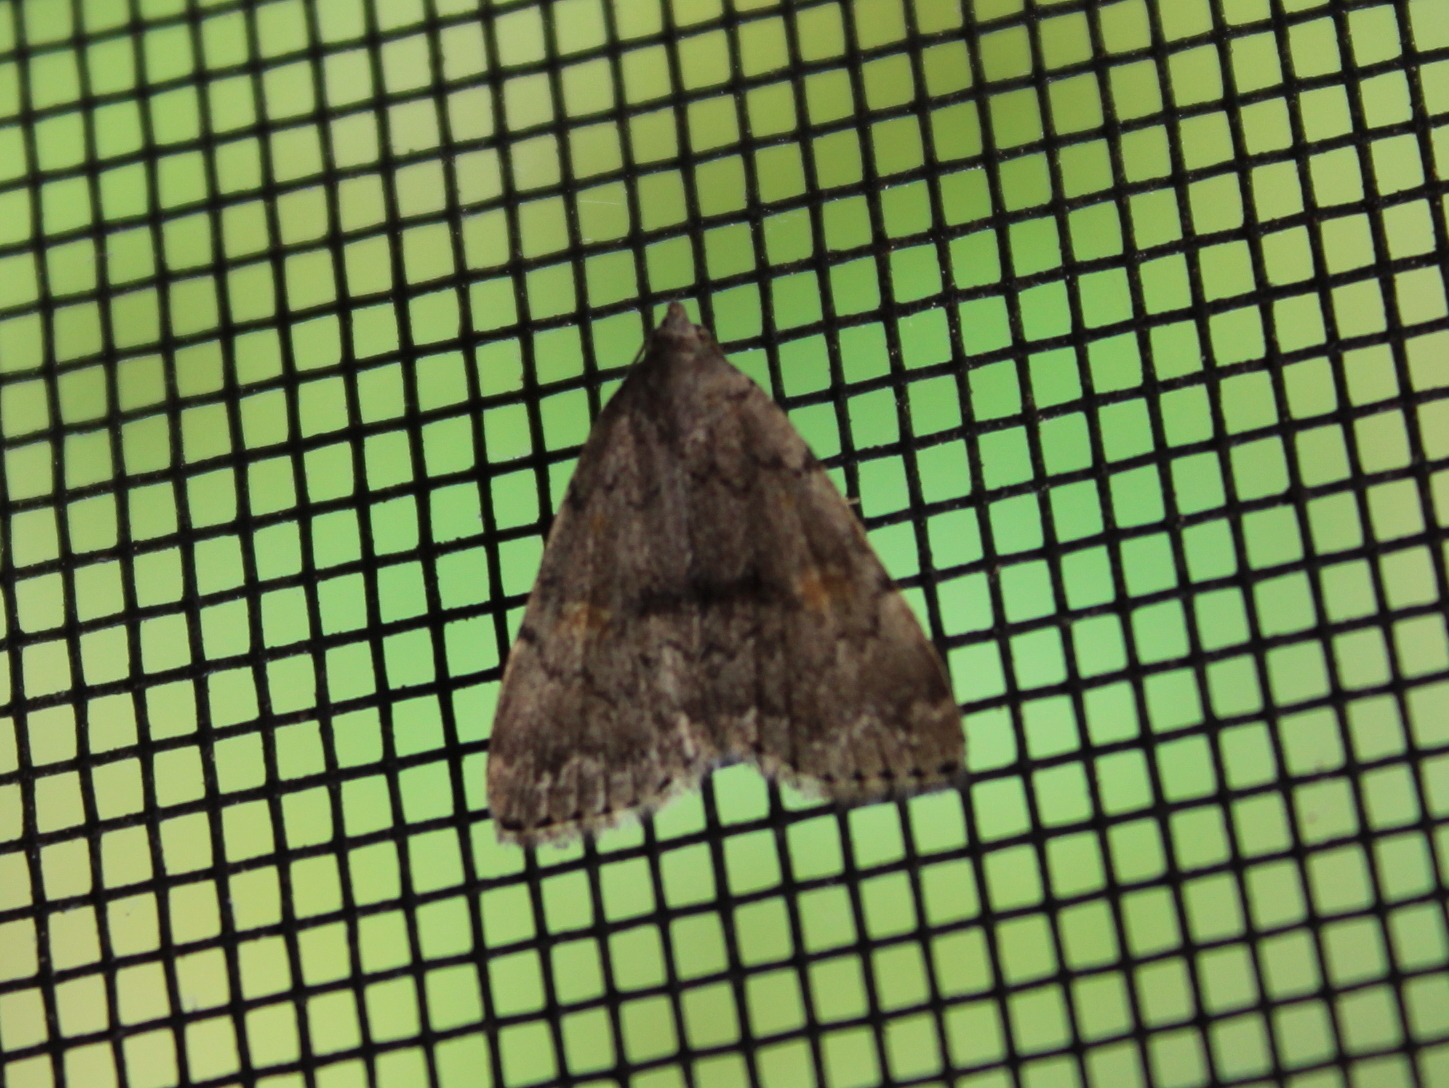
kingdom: Animalia
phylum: Arthropoda
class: Insecta
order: Lepidoptera
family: Erebidae
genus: Idia
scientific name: Idia aemula
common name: Common idia moth
